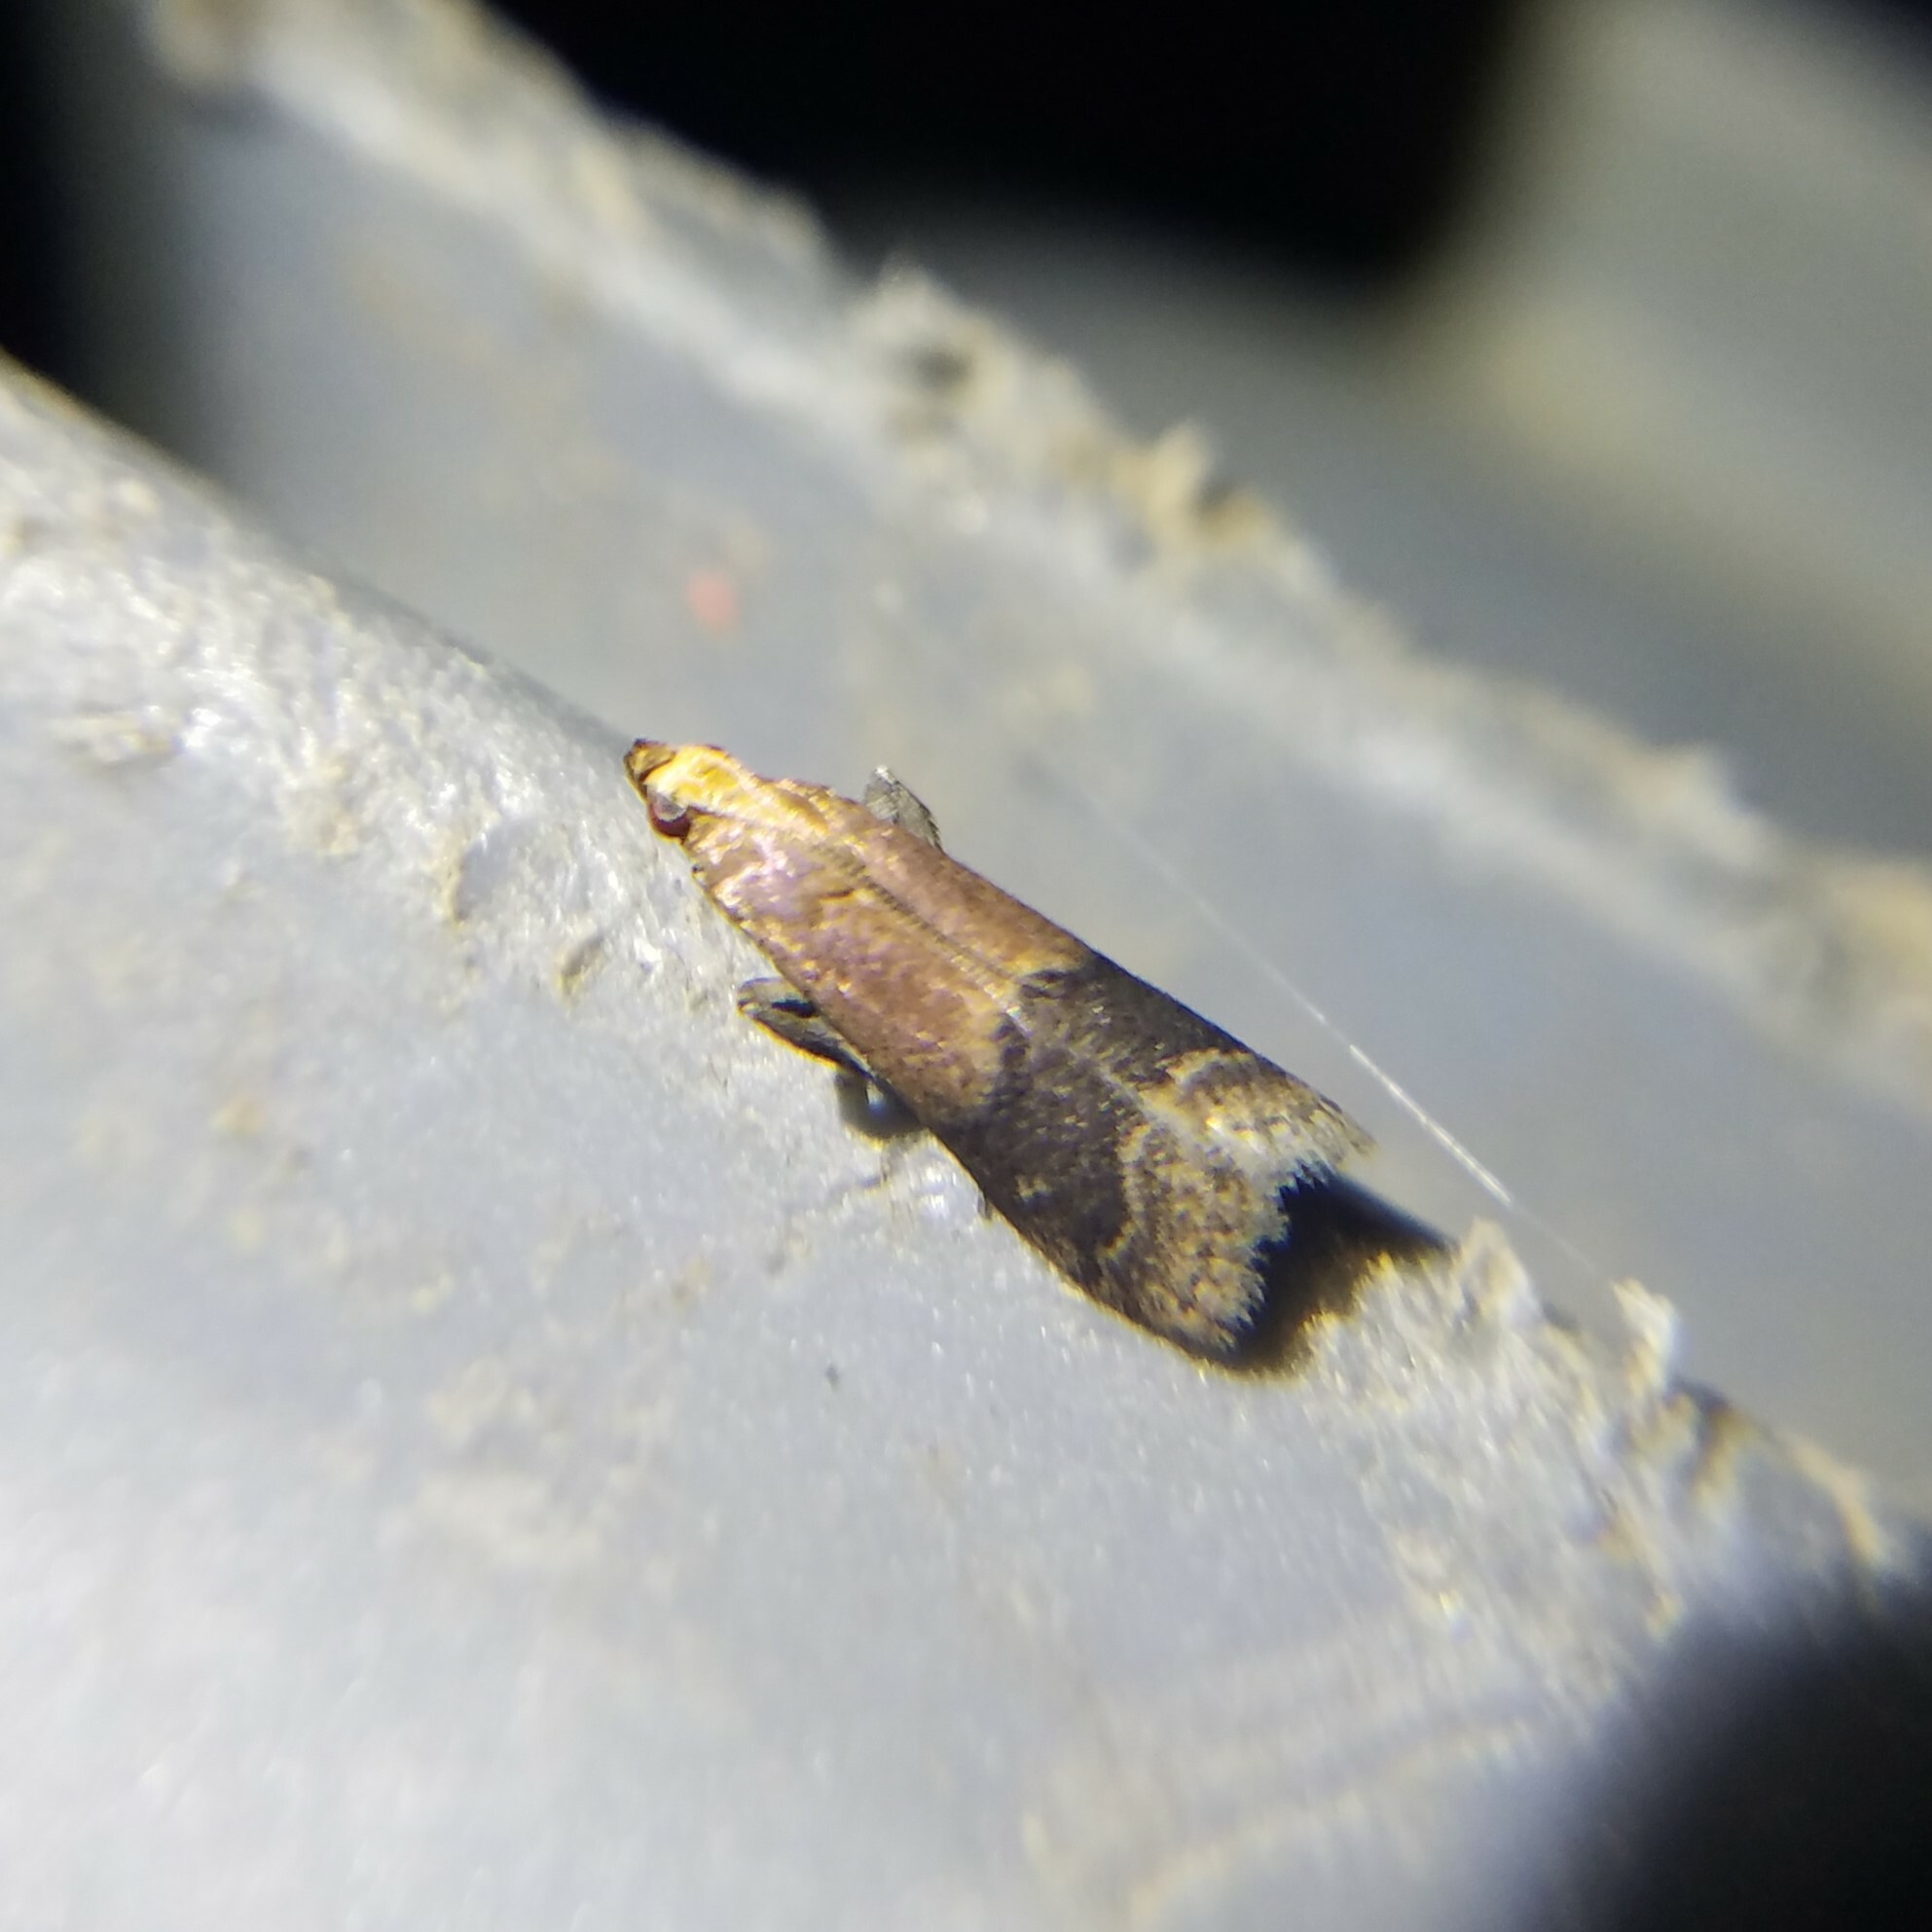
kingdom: Animalia
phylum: Arthropoda
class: Insecta
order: Lepidoptera
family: Pyralidae
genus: Eulogia
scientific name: Eulogia ochrifrontella
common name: Broad-banded eulogia moth
